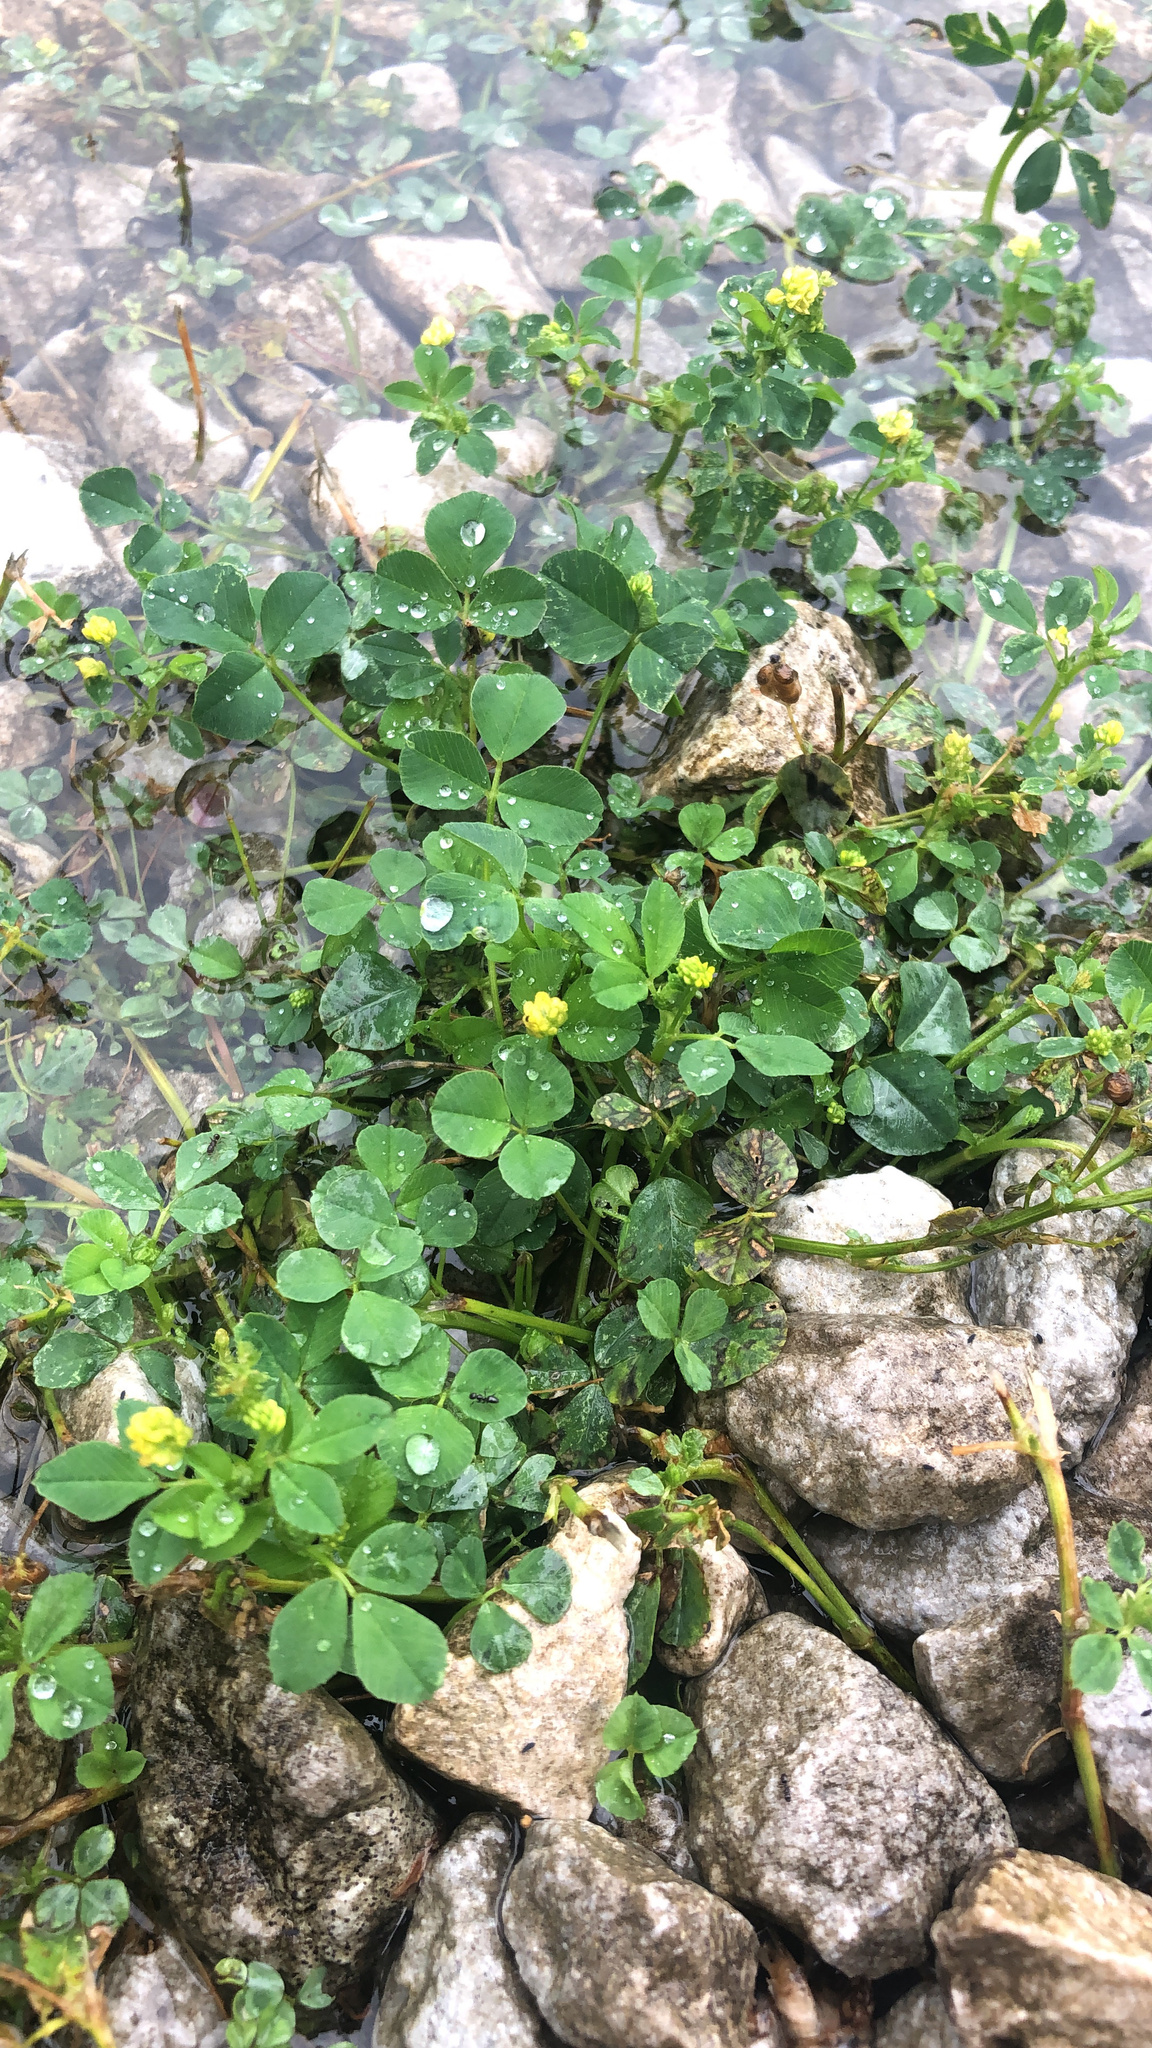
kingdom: Plantae
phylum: Tracheophyta
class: Magnoliopsida
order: Fabales
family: Fabaceae
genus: Medicago
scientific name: Medicago polymorpha
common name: Burclover
